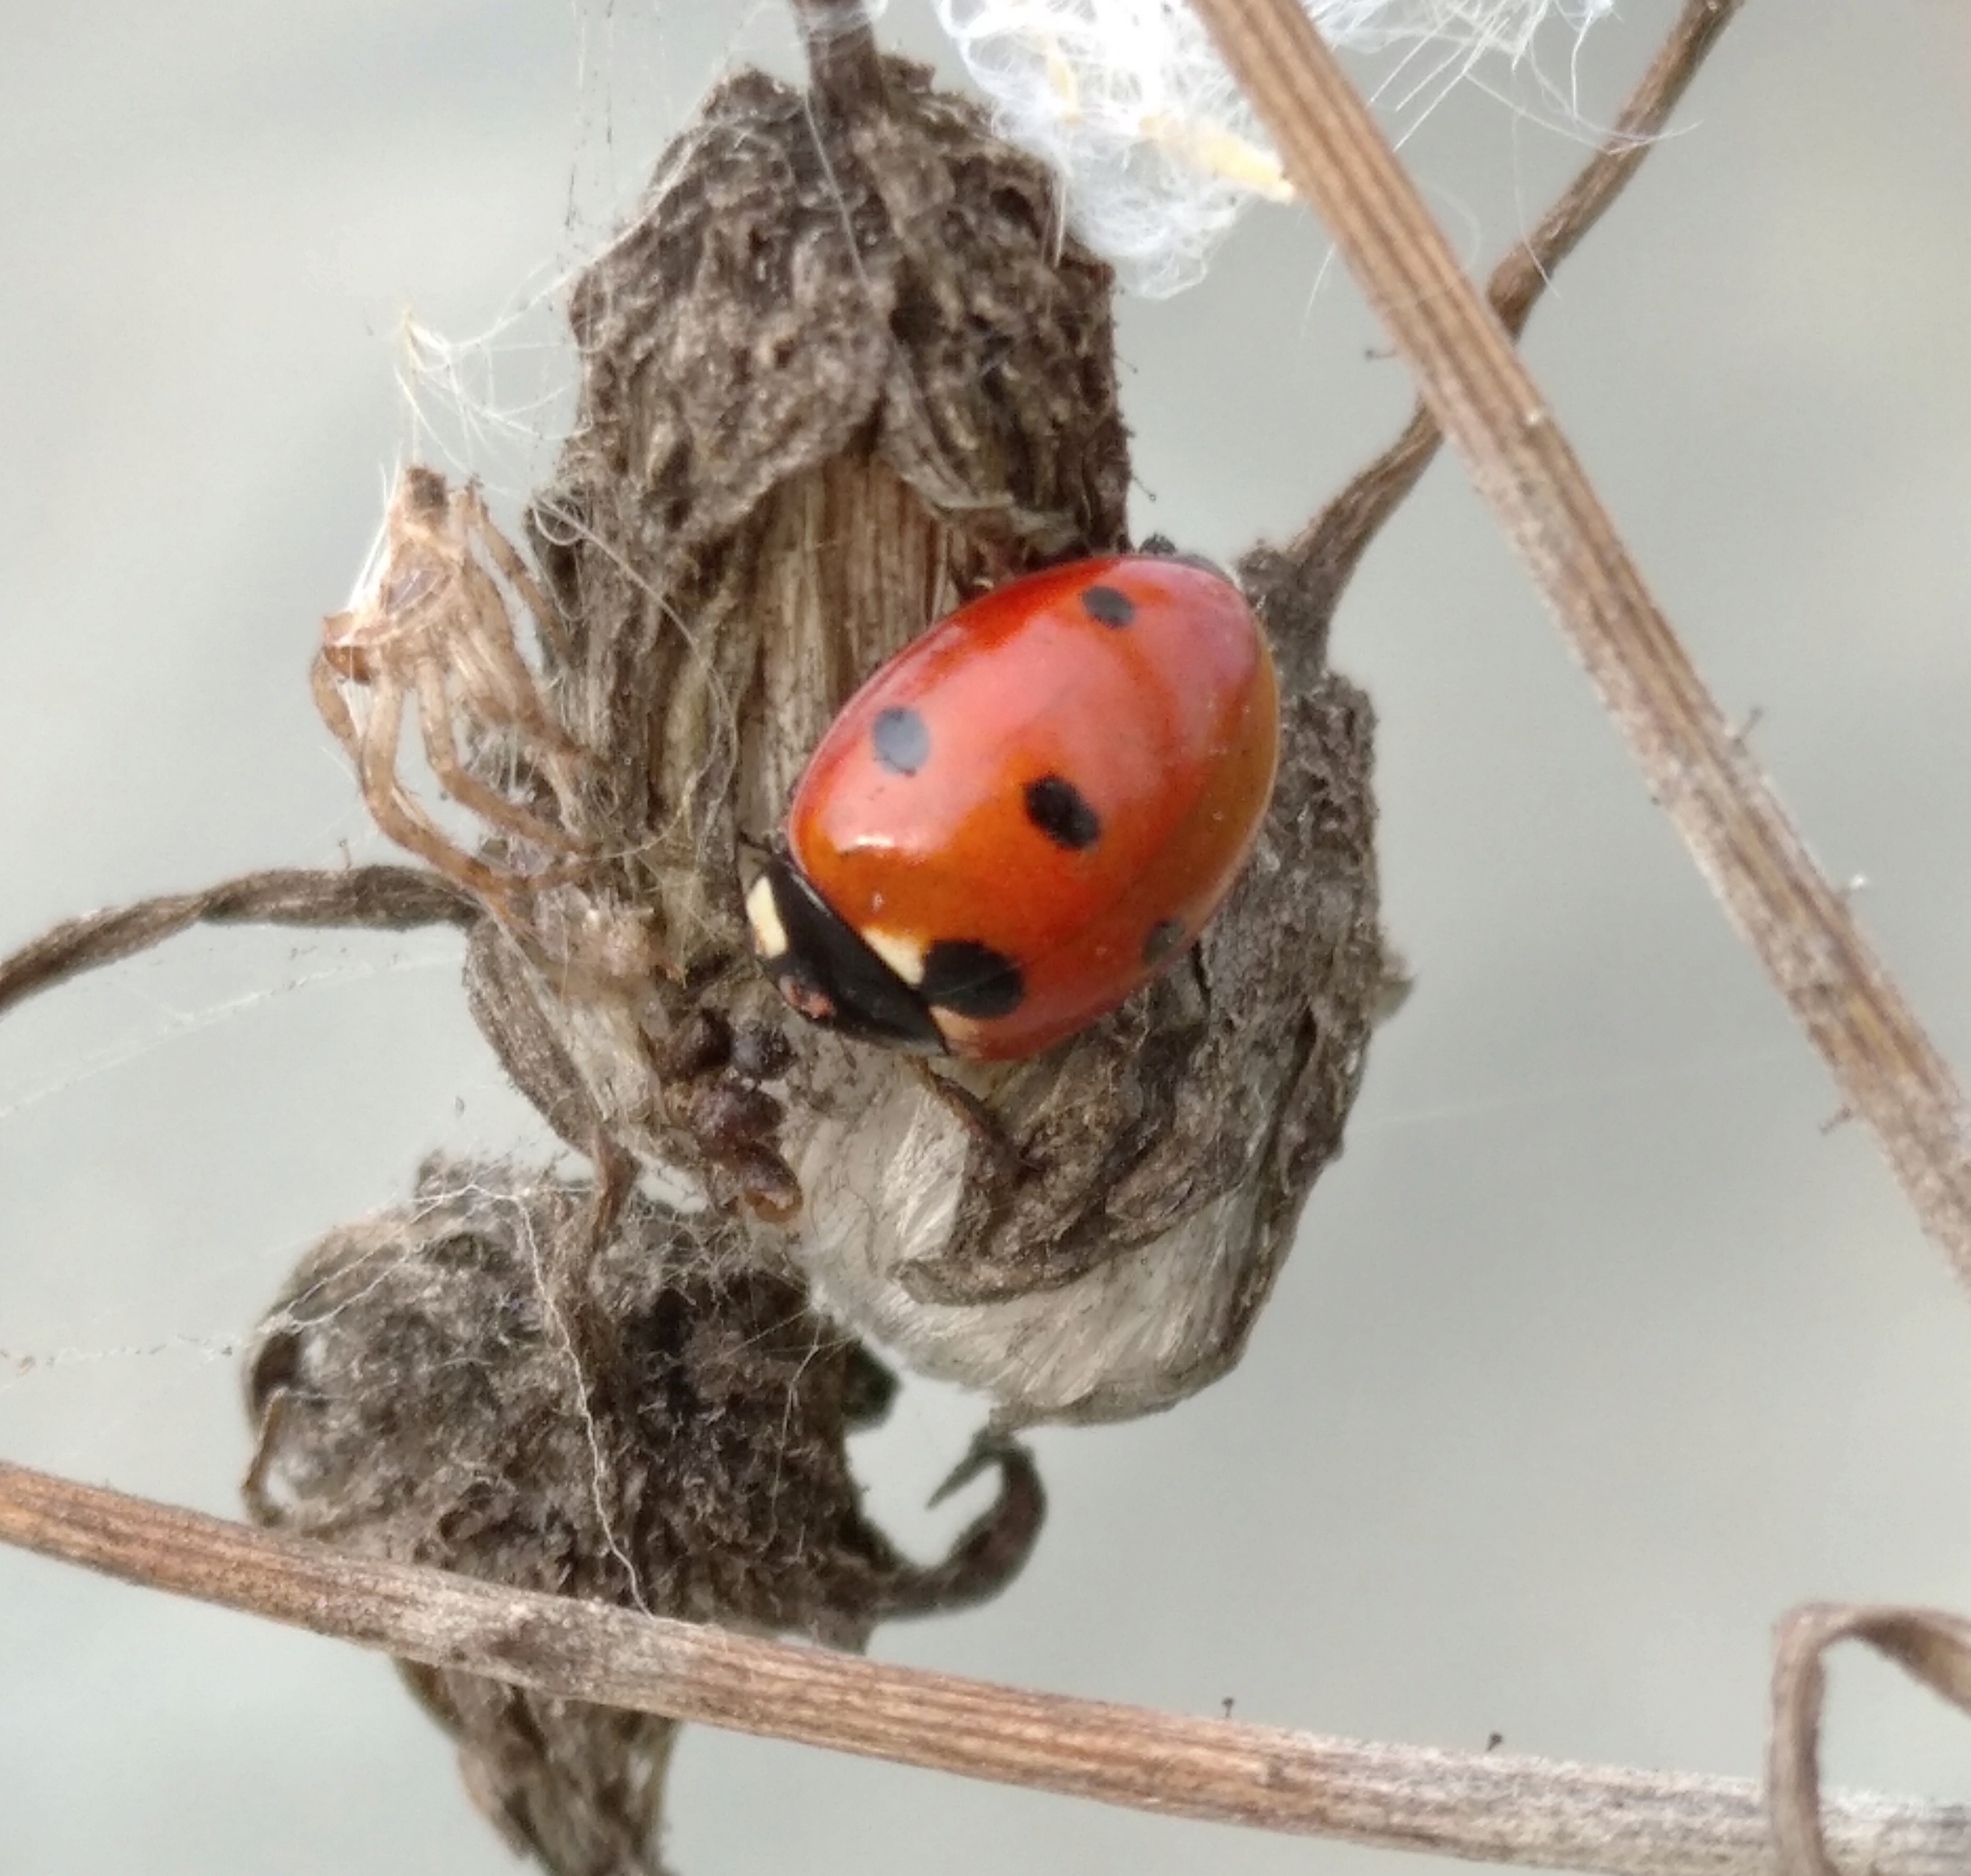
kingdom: Animalia
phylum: Arthropoda
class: Insecta
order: Coleoptera
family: Coccinellidae
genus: Coccinella
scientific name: Coccinella septempunctata
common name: Sevenspotted lady beetle
